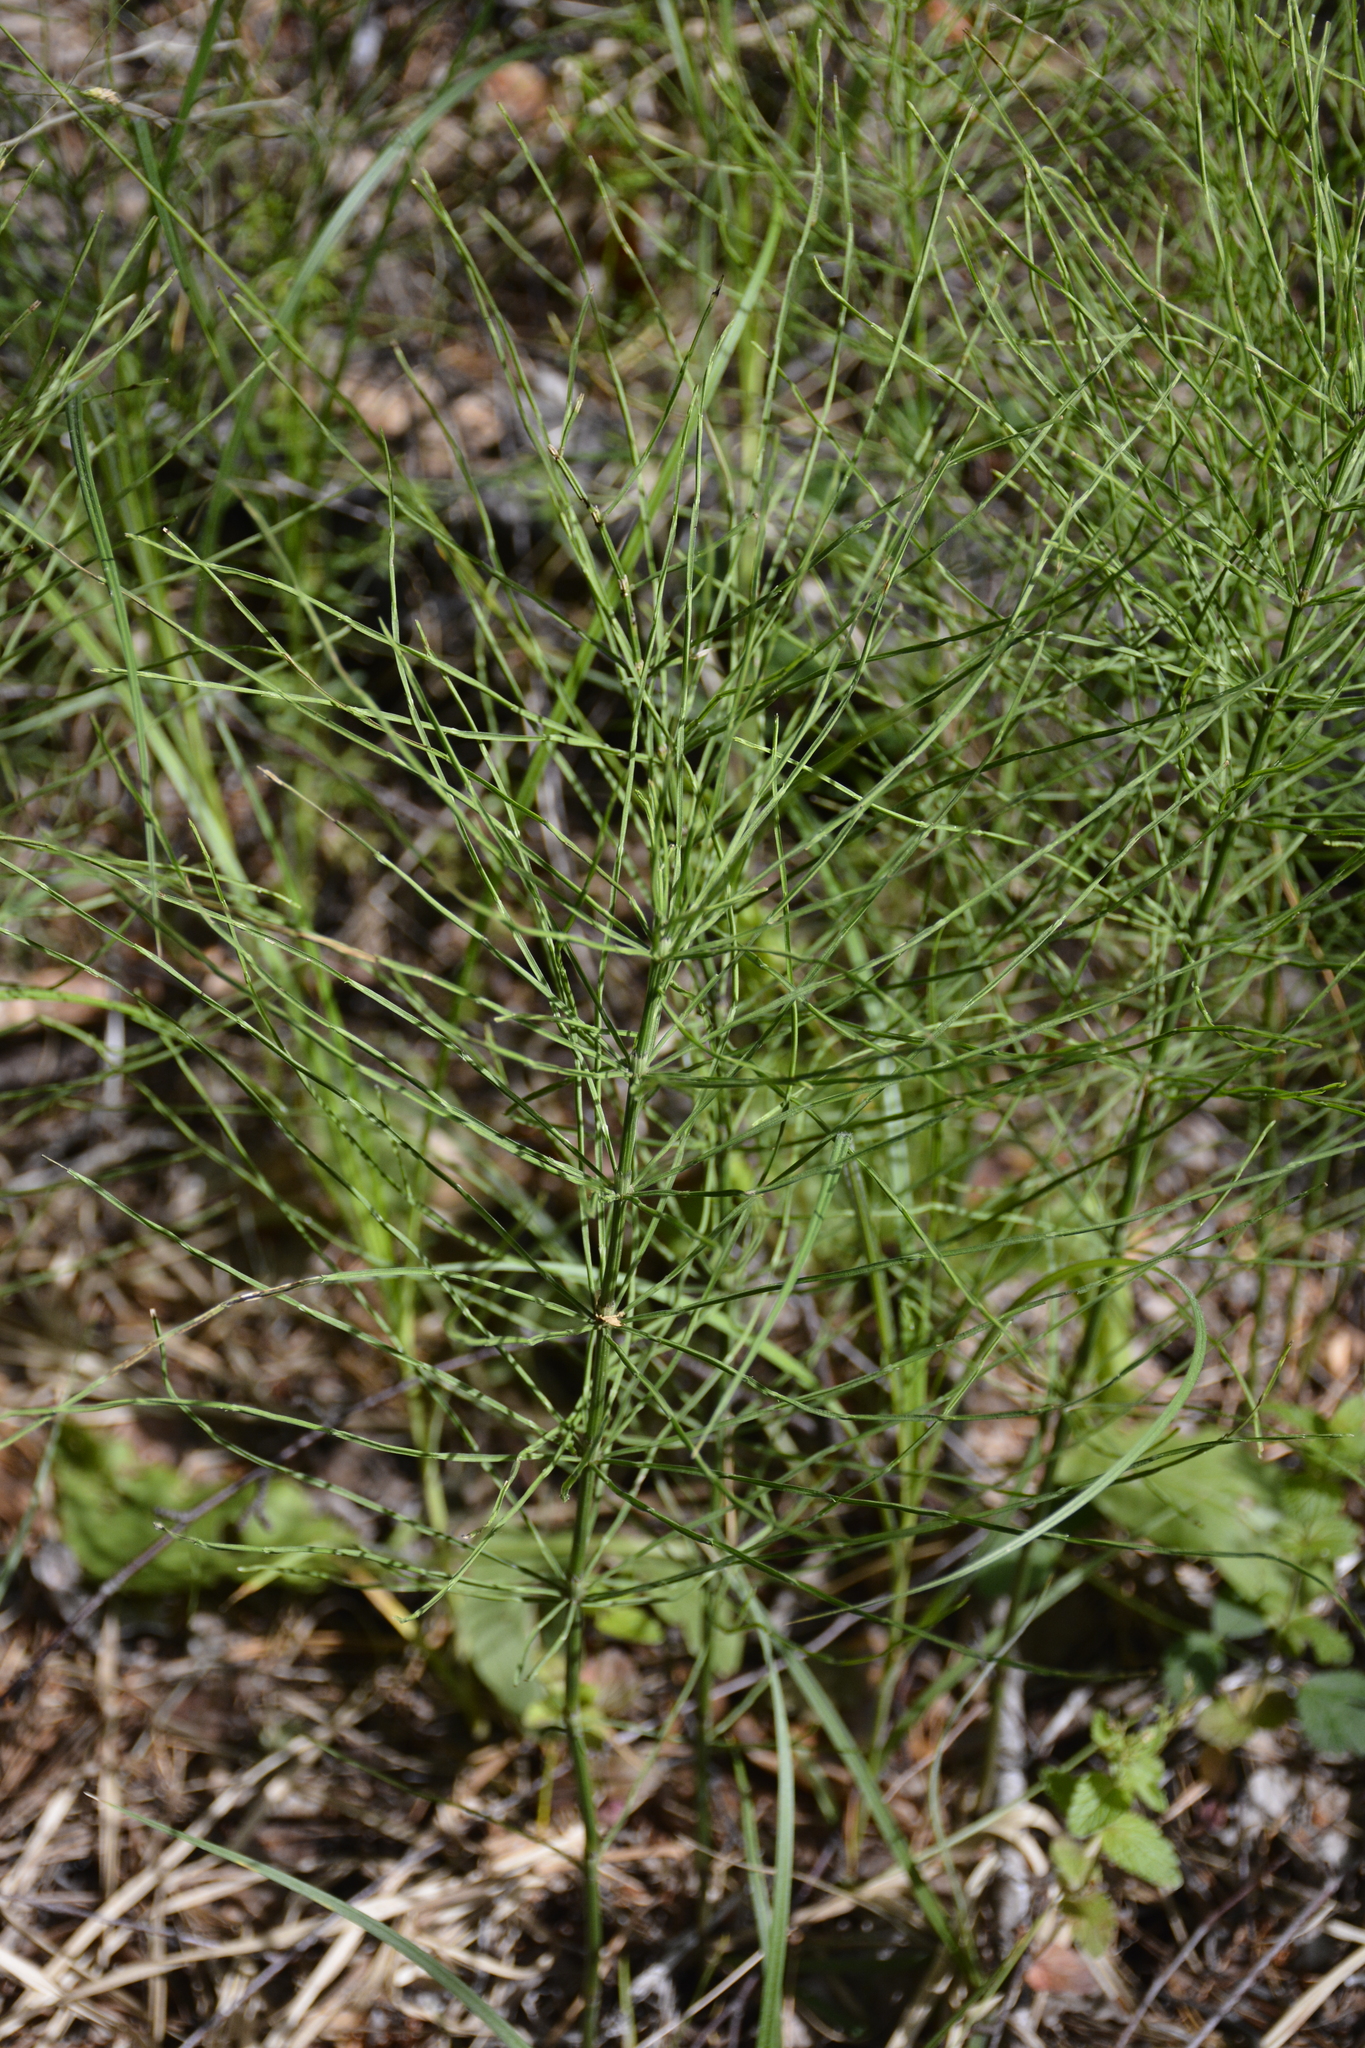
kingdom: Plantae
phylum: Tracheophyta
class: Polypodiopsida
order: Equisetales
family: Equisetaceae
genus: Equisetum
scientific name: Equisetum arvense
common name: Field horsetail
